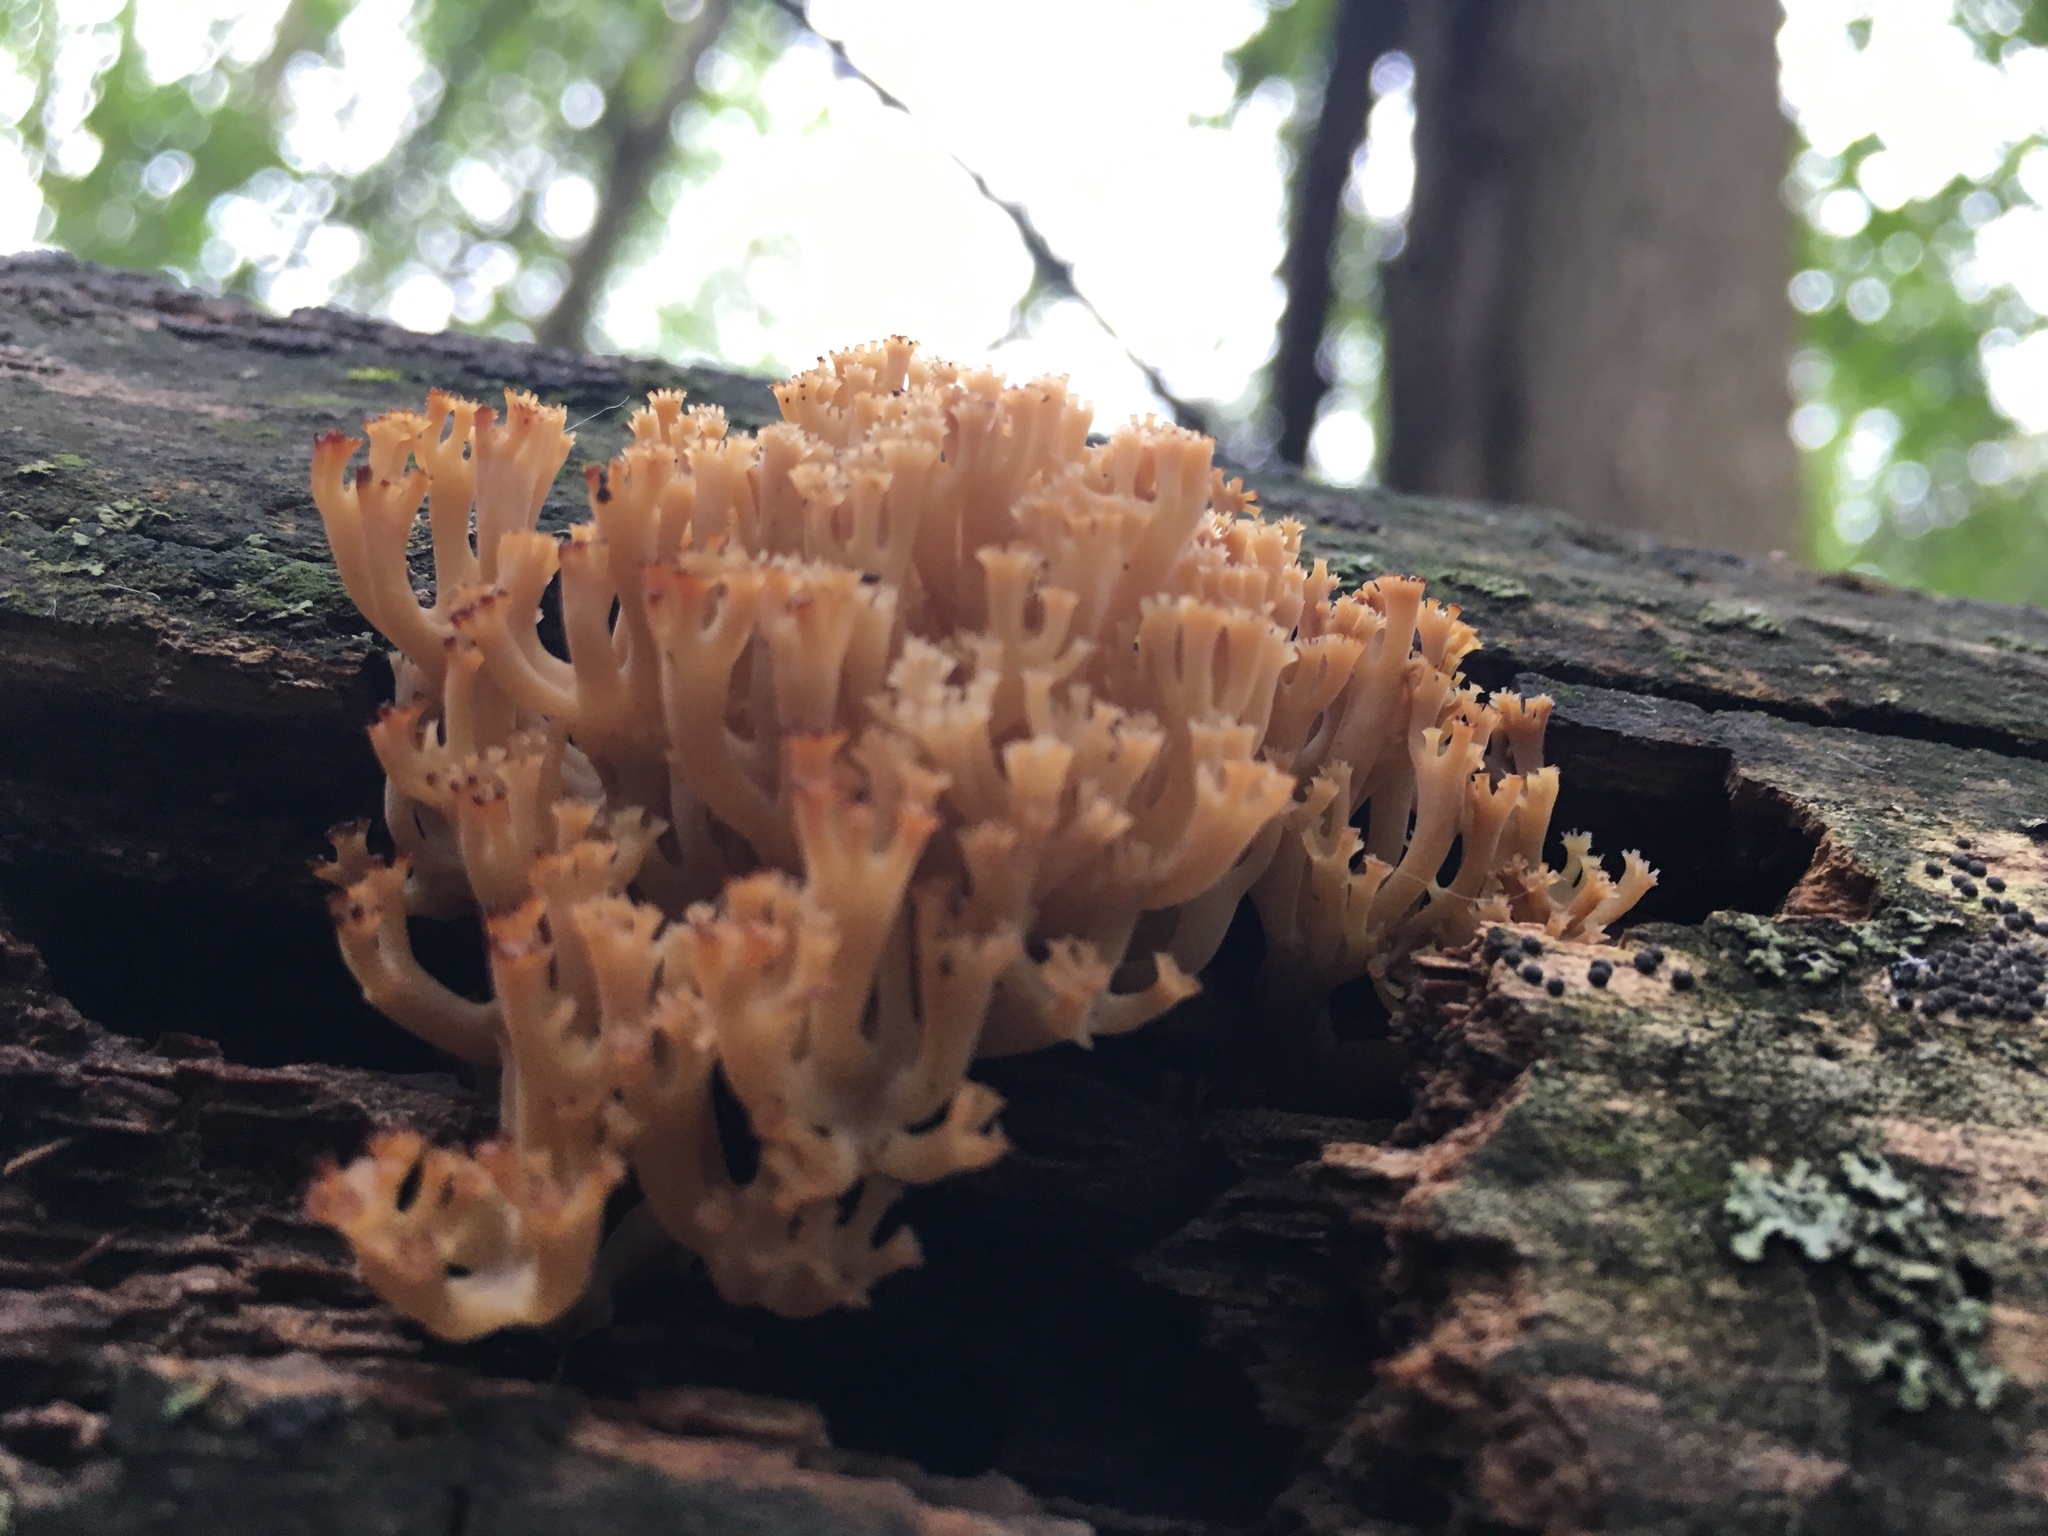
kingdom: Fungi
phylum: Basidiomycota
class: Agaricomycetes
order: Russulales
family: Auriscalpiaceae
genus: Artomyces
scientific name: Artomyces pyxidatus
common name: Crown-tipped coral fungus
